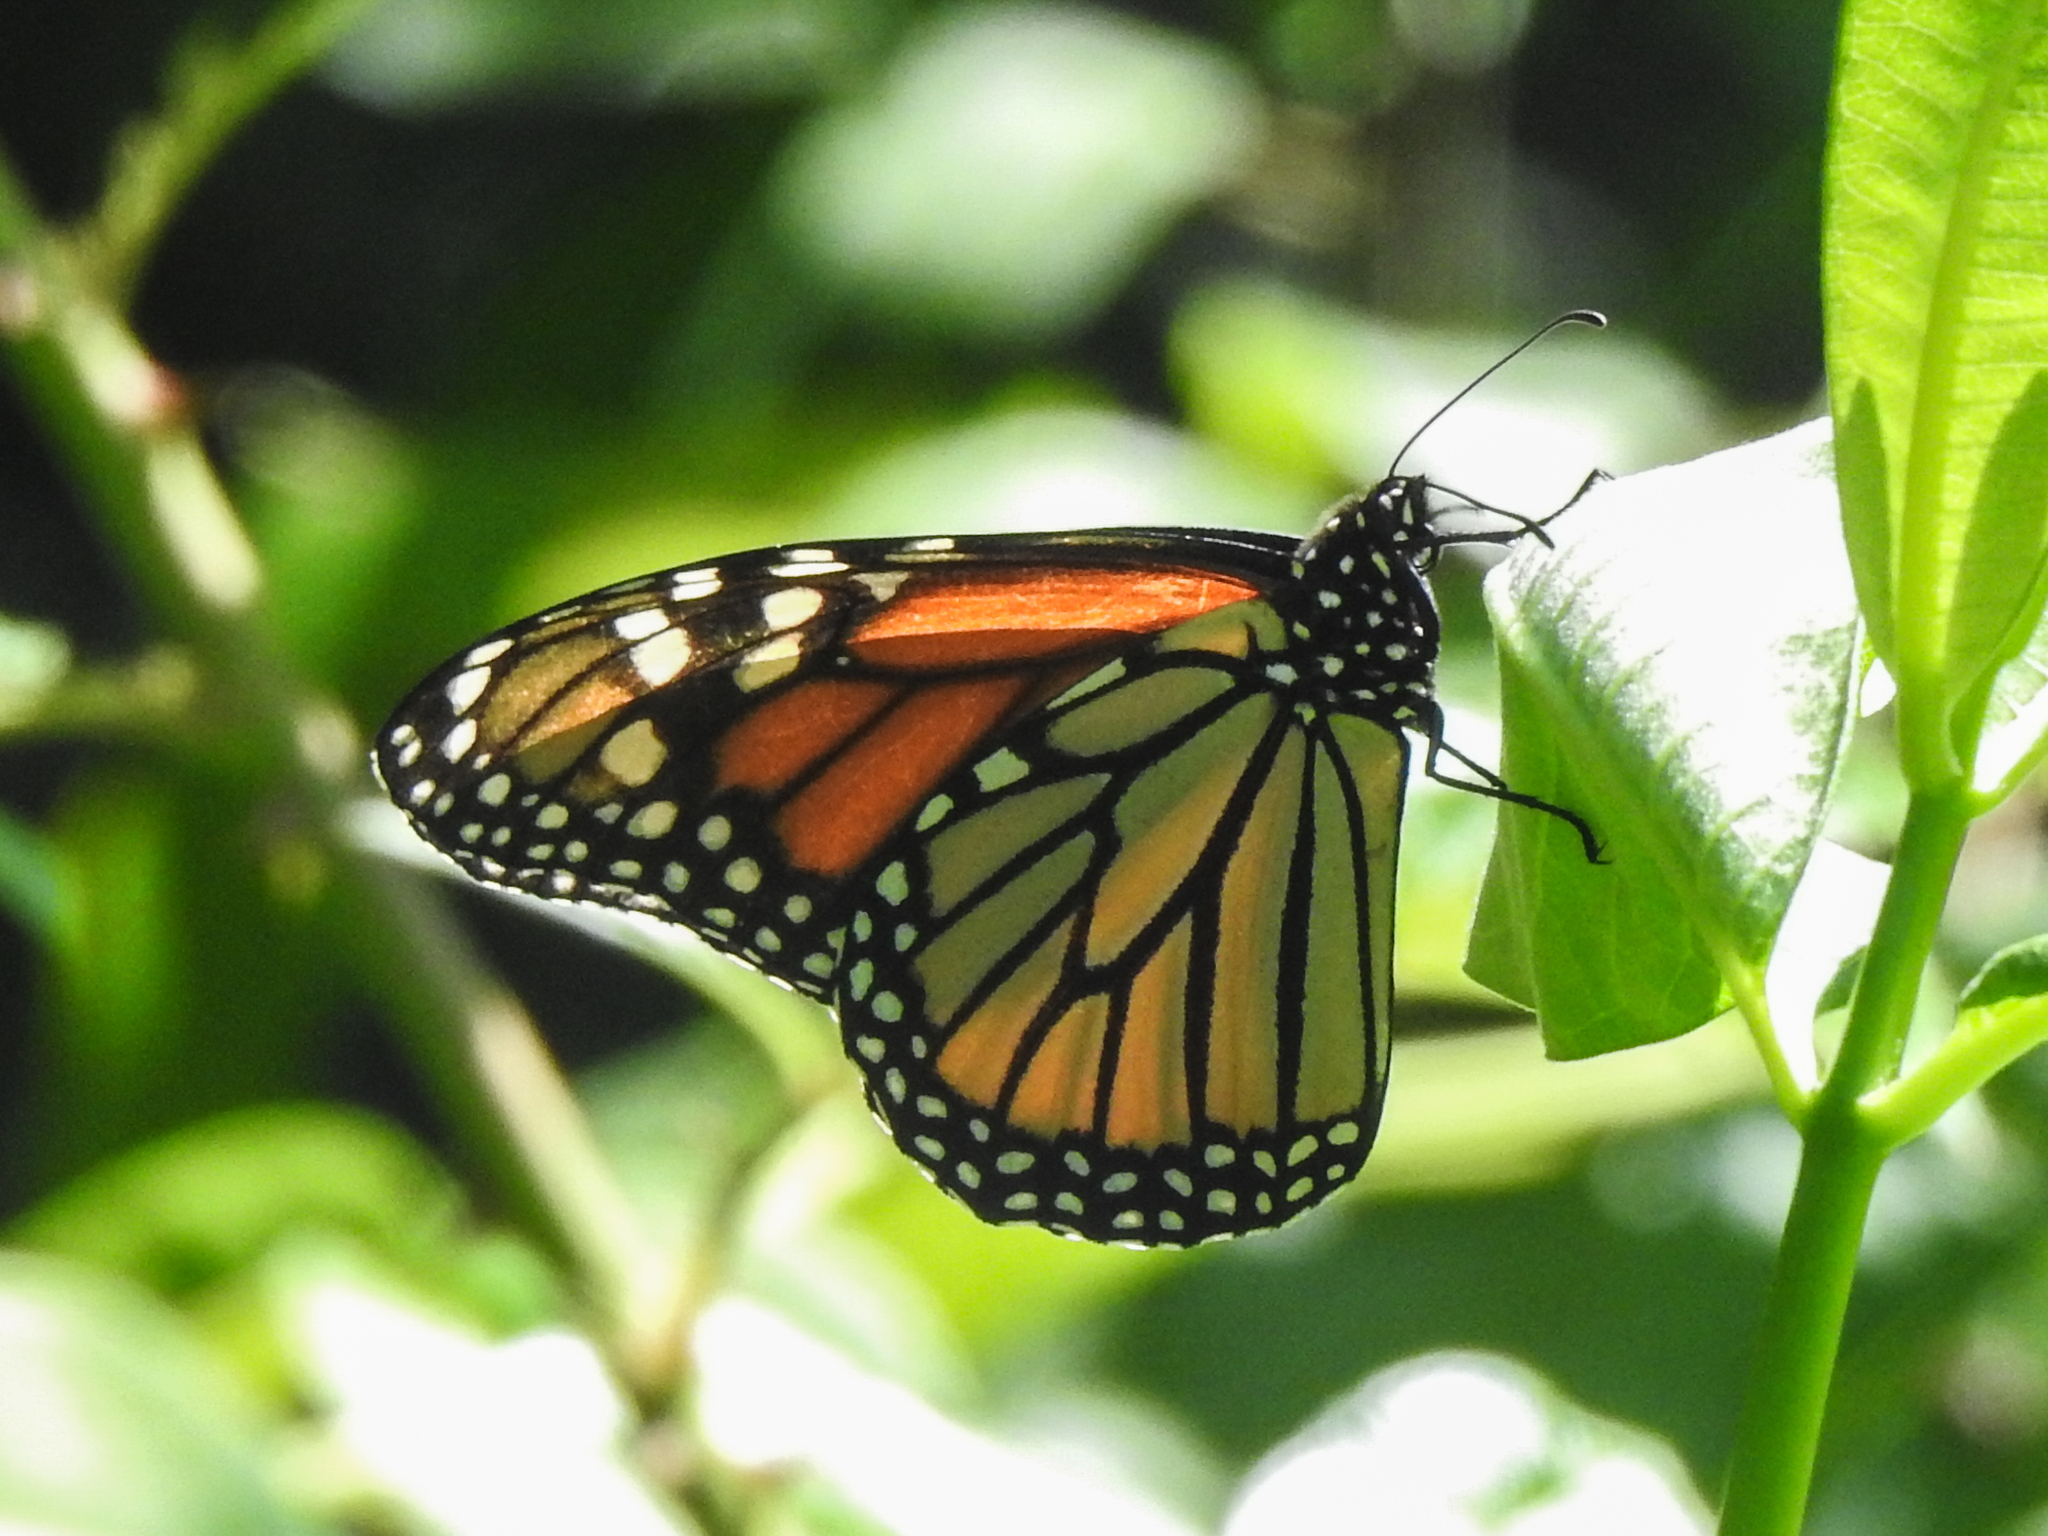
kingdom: Animalia
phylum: Arthropoda
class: Insecta
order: Lepidoptera
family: Nymphalidae
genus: Danaus
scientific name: Danaus plexippus
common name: Monarch
